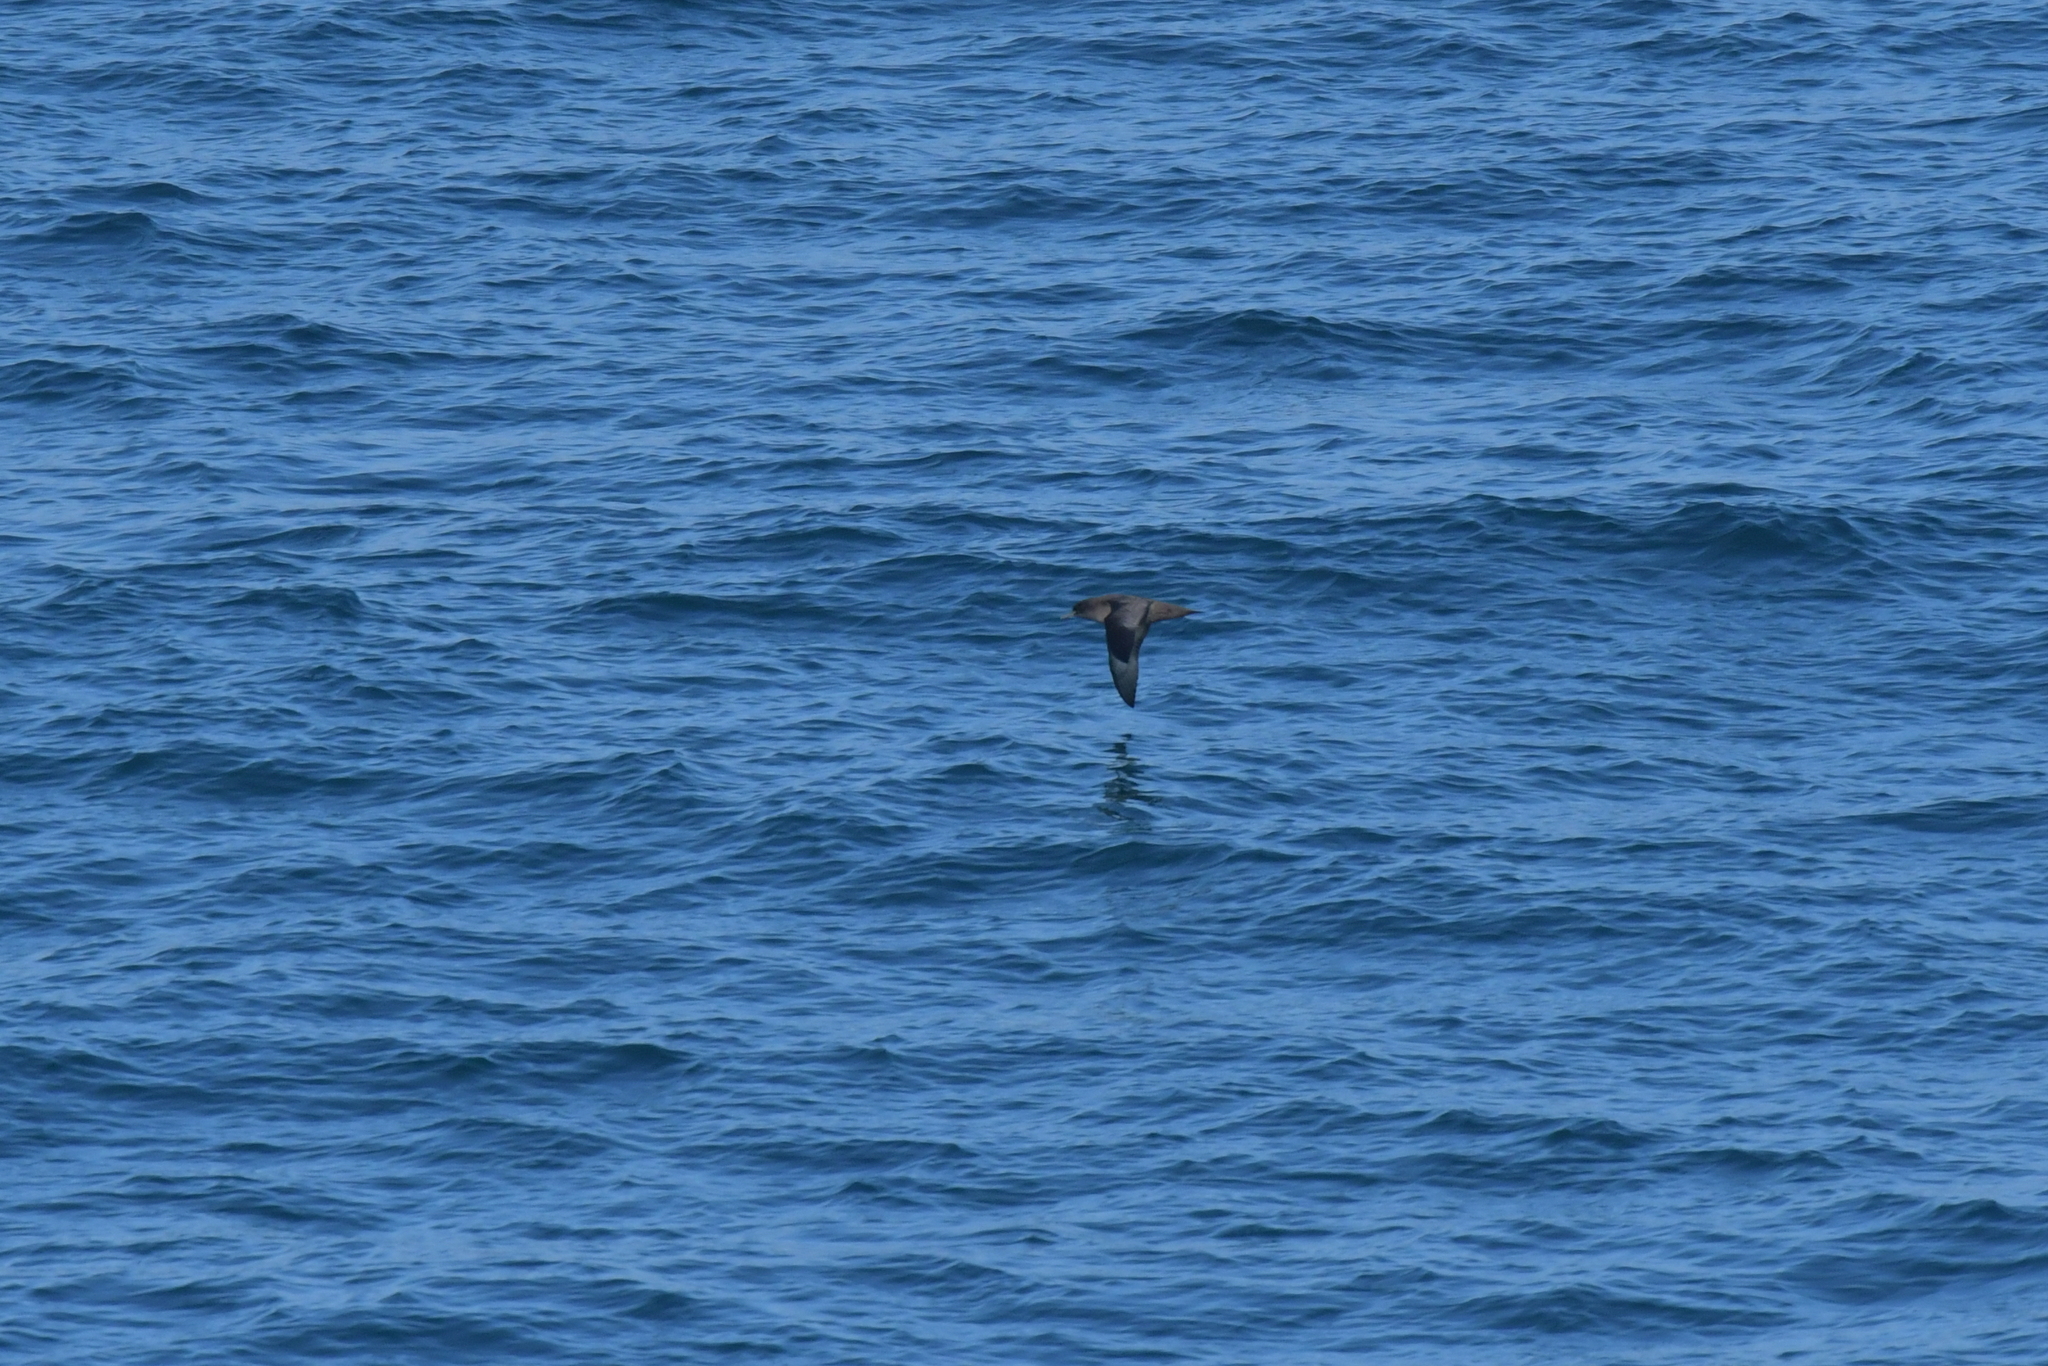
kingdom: Animalia
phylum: Chordata
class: Aves
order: Procellariiformes
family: Procellariidae
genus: Puffinus
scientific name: Puffinus griseus
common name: Sooty shearwater
